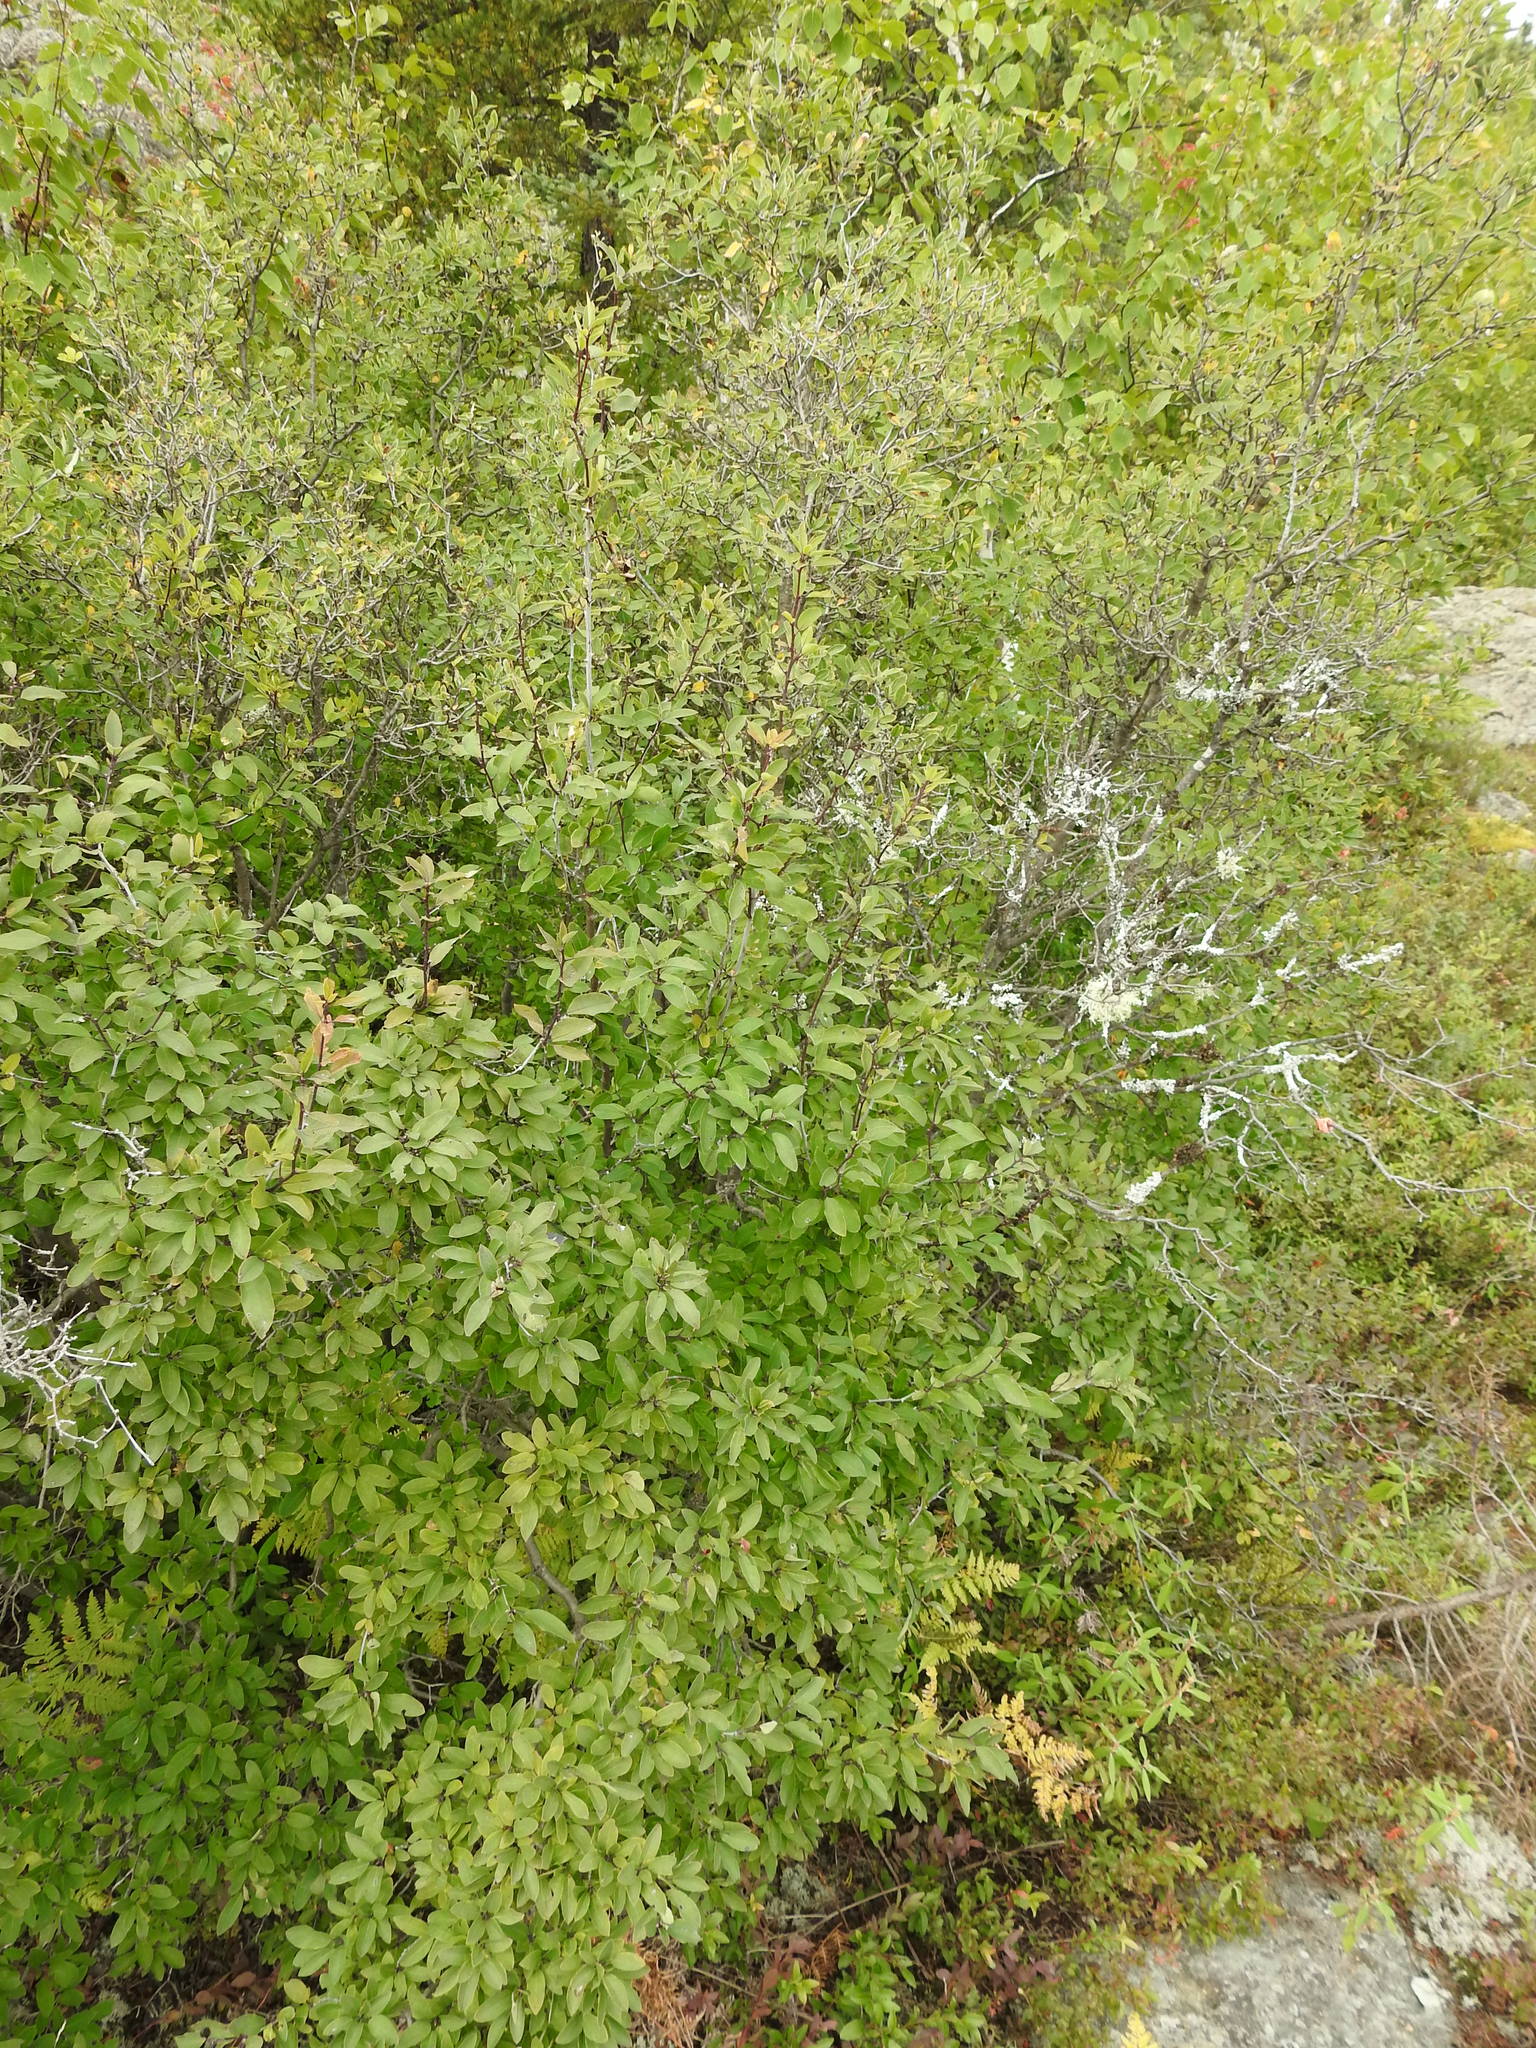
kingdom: Plantae
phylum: Tracheophyta
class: Magnoliopsida
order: Aquifoliales
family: Aquifoliaceae
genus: Ilex
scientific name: Ilex mucronata
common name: Catberry
